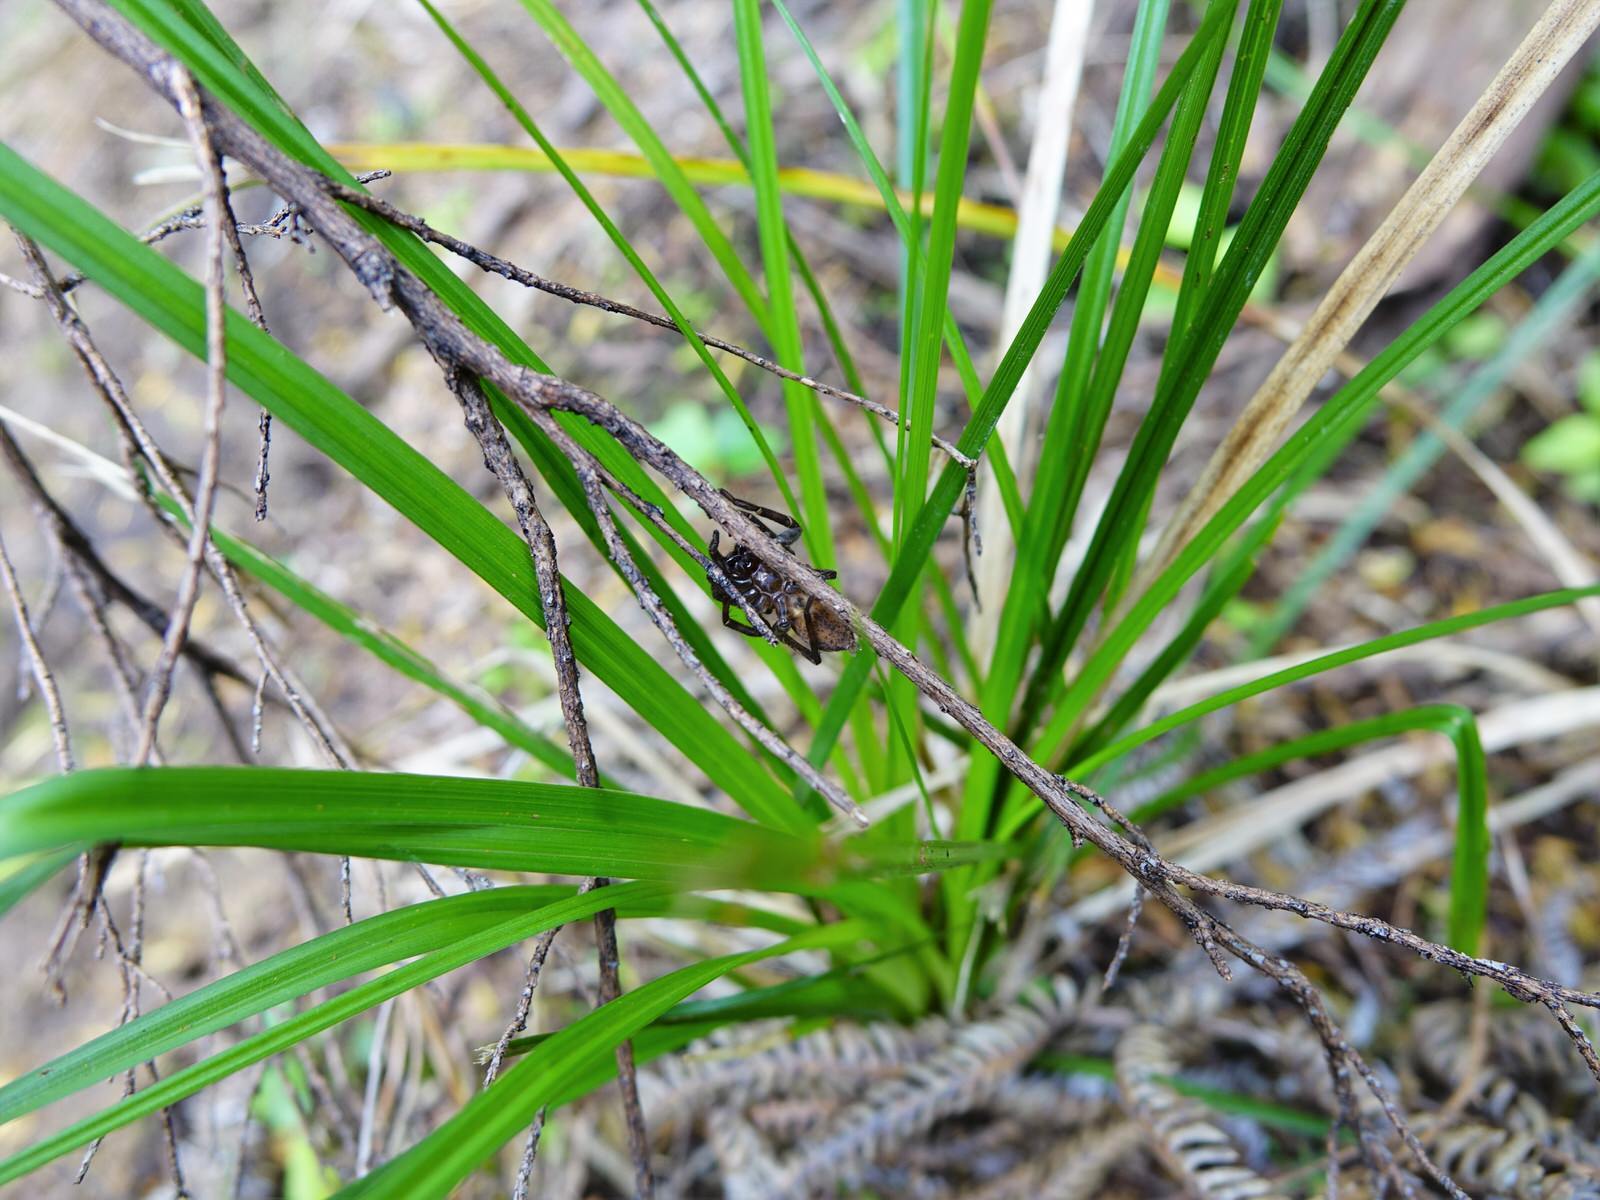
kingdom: Animalia
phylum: Arthropoda
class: Arachnida
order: Araneae
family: Zoropsidae
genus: Uliodon
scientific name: Uliodon albopunctatus
